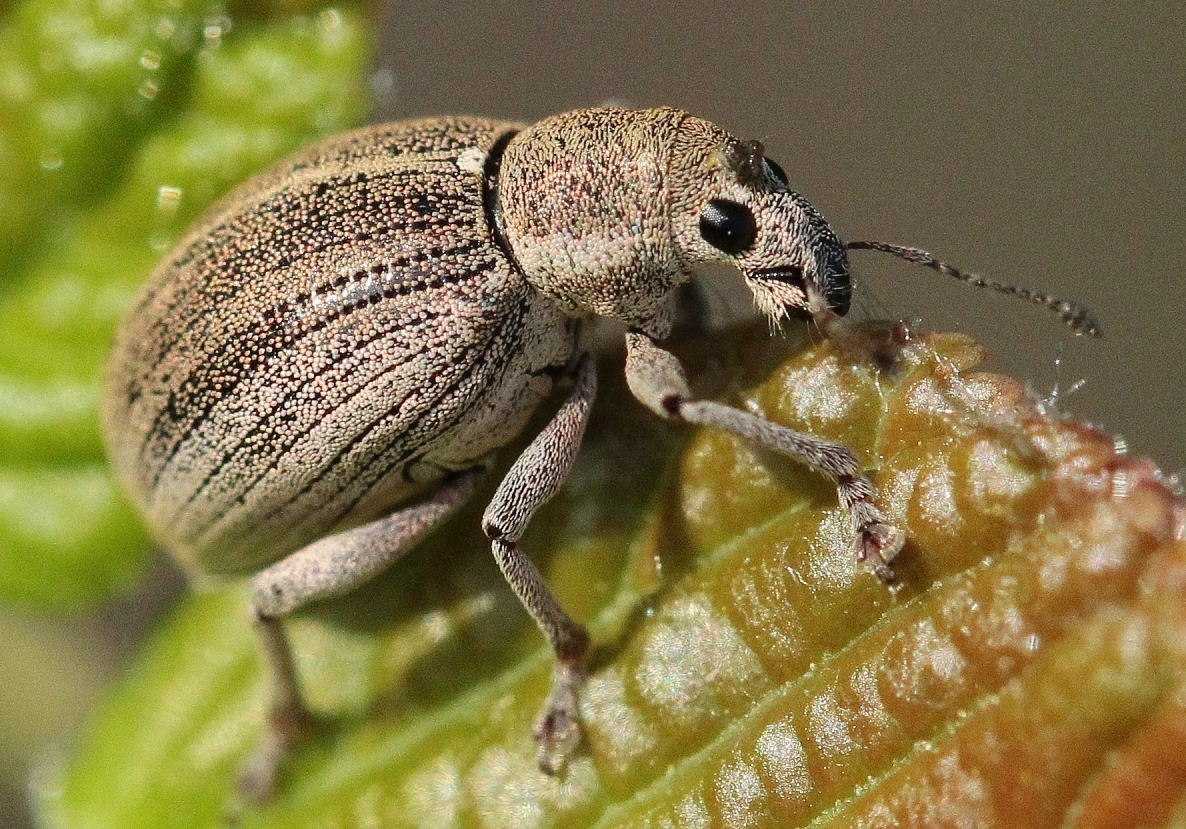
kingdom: Animalia
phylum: Arthropoda
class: Insecta
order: Coleoptera
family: Curculionidae
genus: Sciaphobus
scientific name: Sciaphobus squalidus
